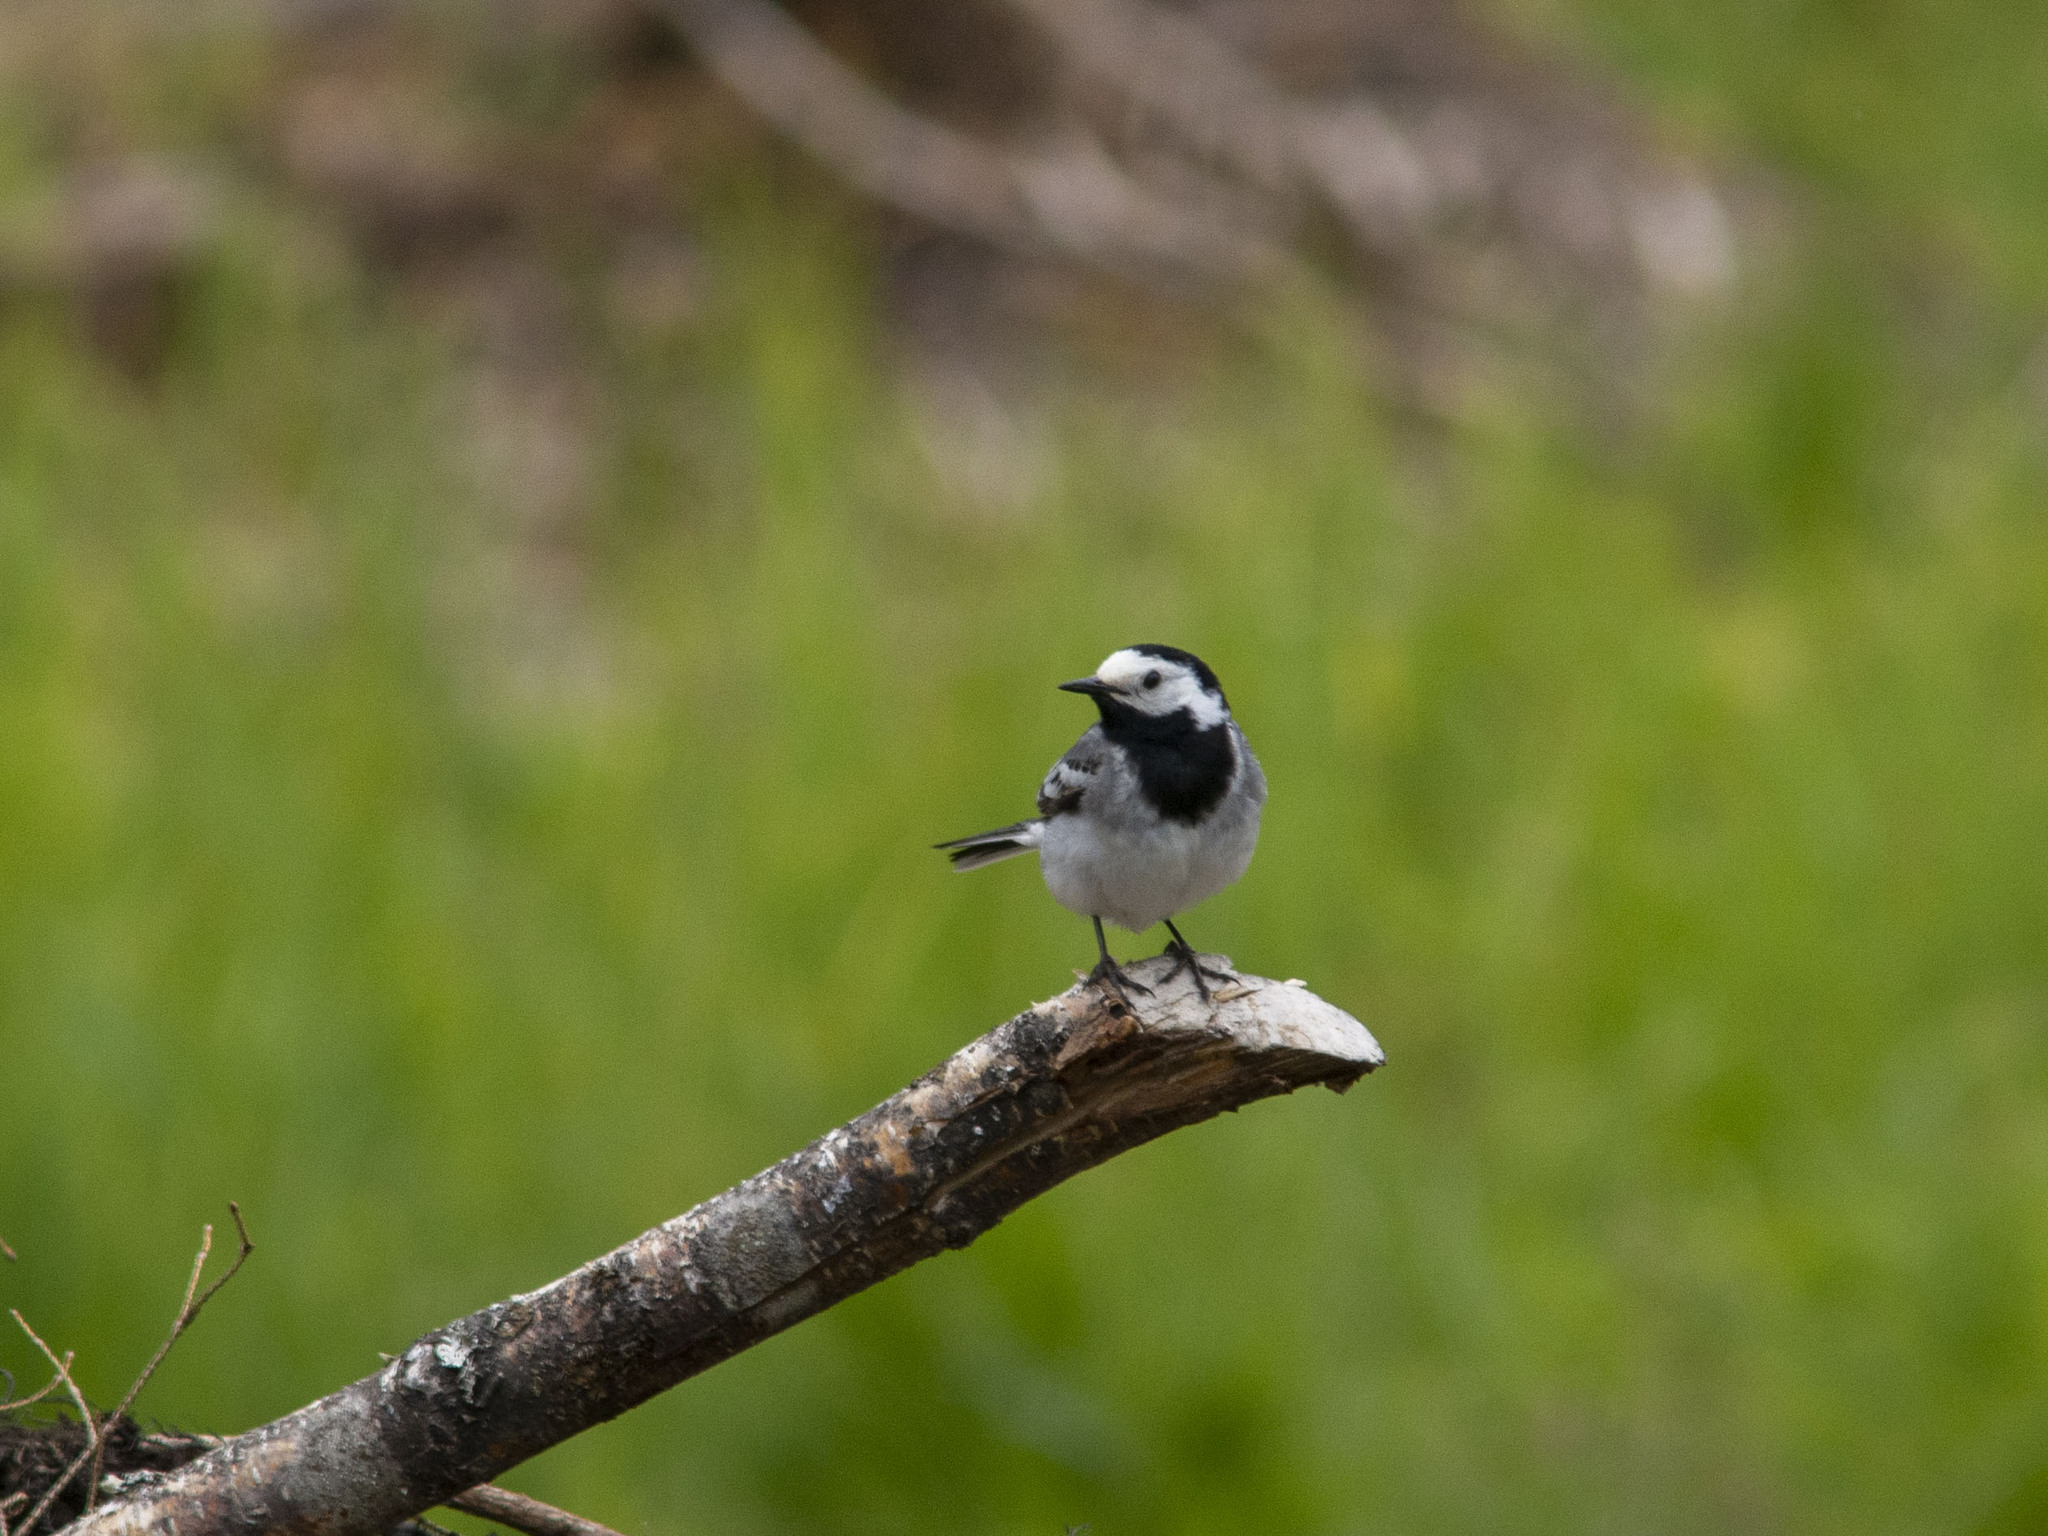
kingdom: Animalia
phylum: Chordata
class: Aves
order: Passeriformes
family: Motacillidae
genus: Motacilla
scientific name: Motacilla alba
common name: White wagtail
